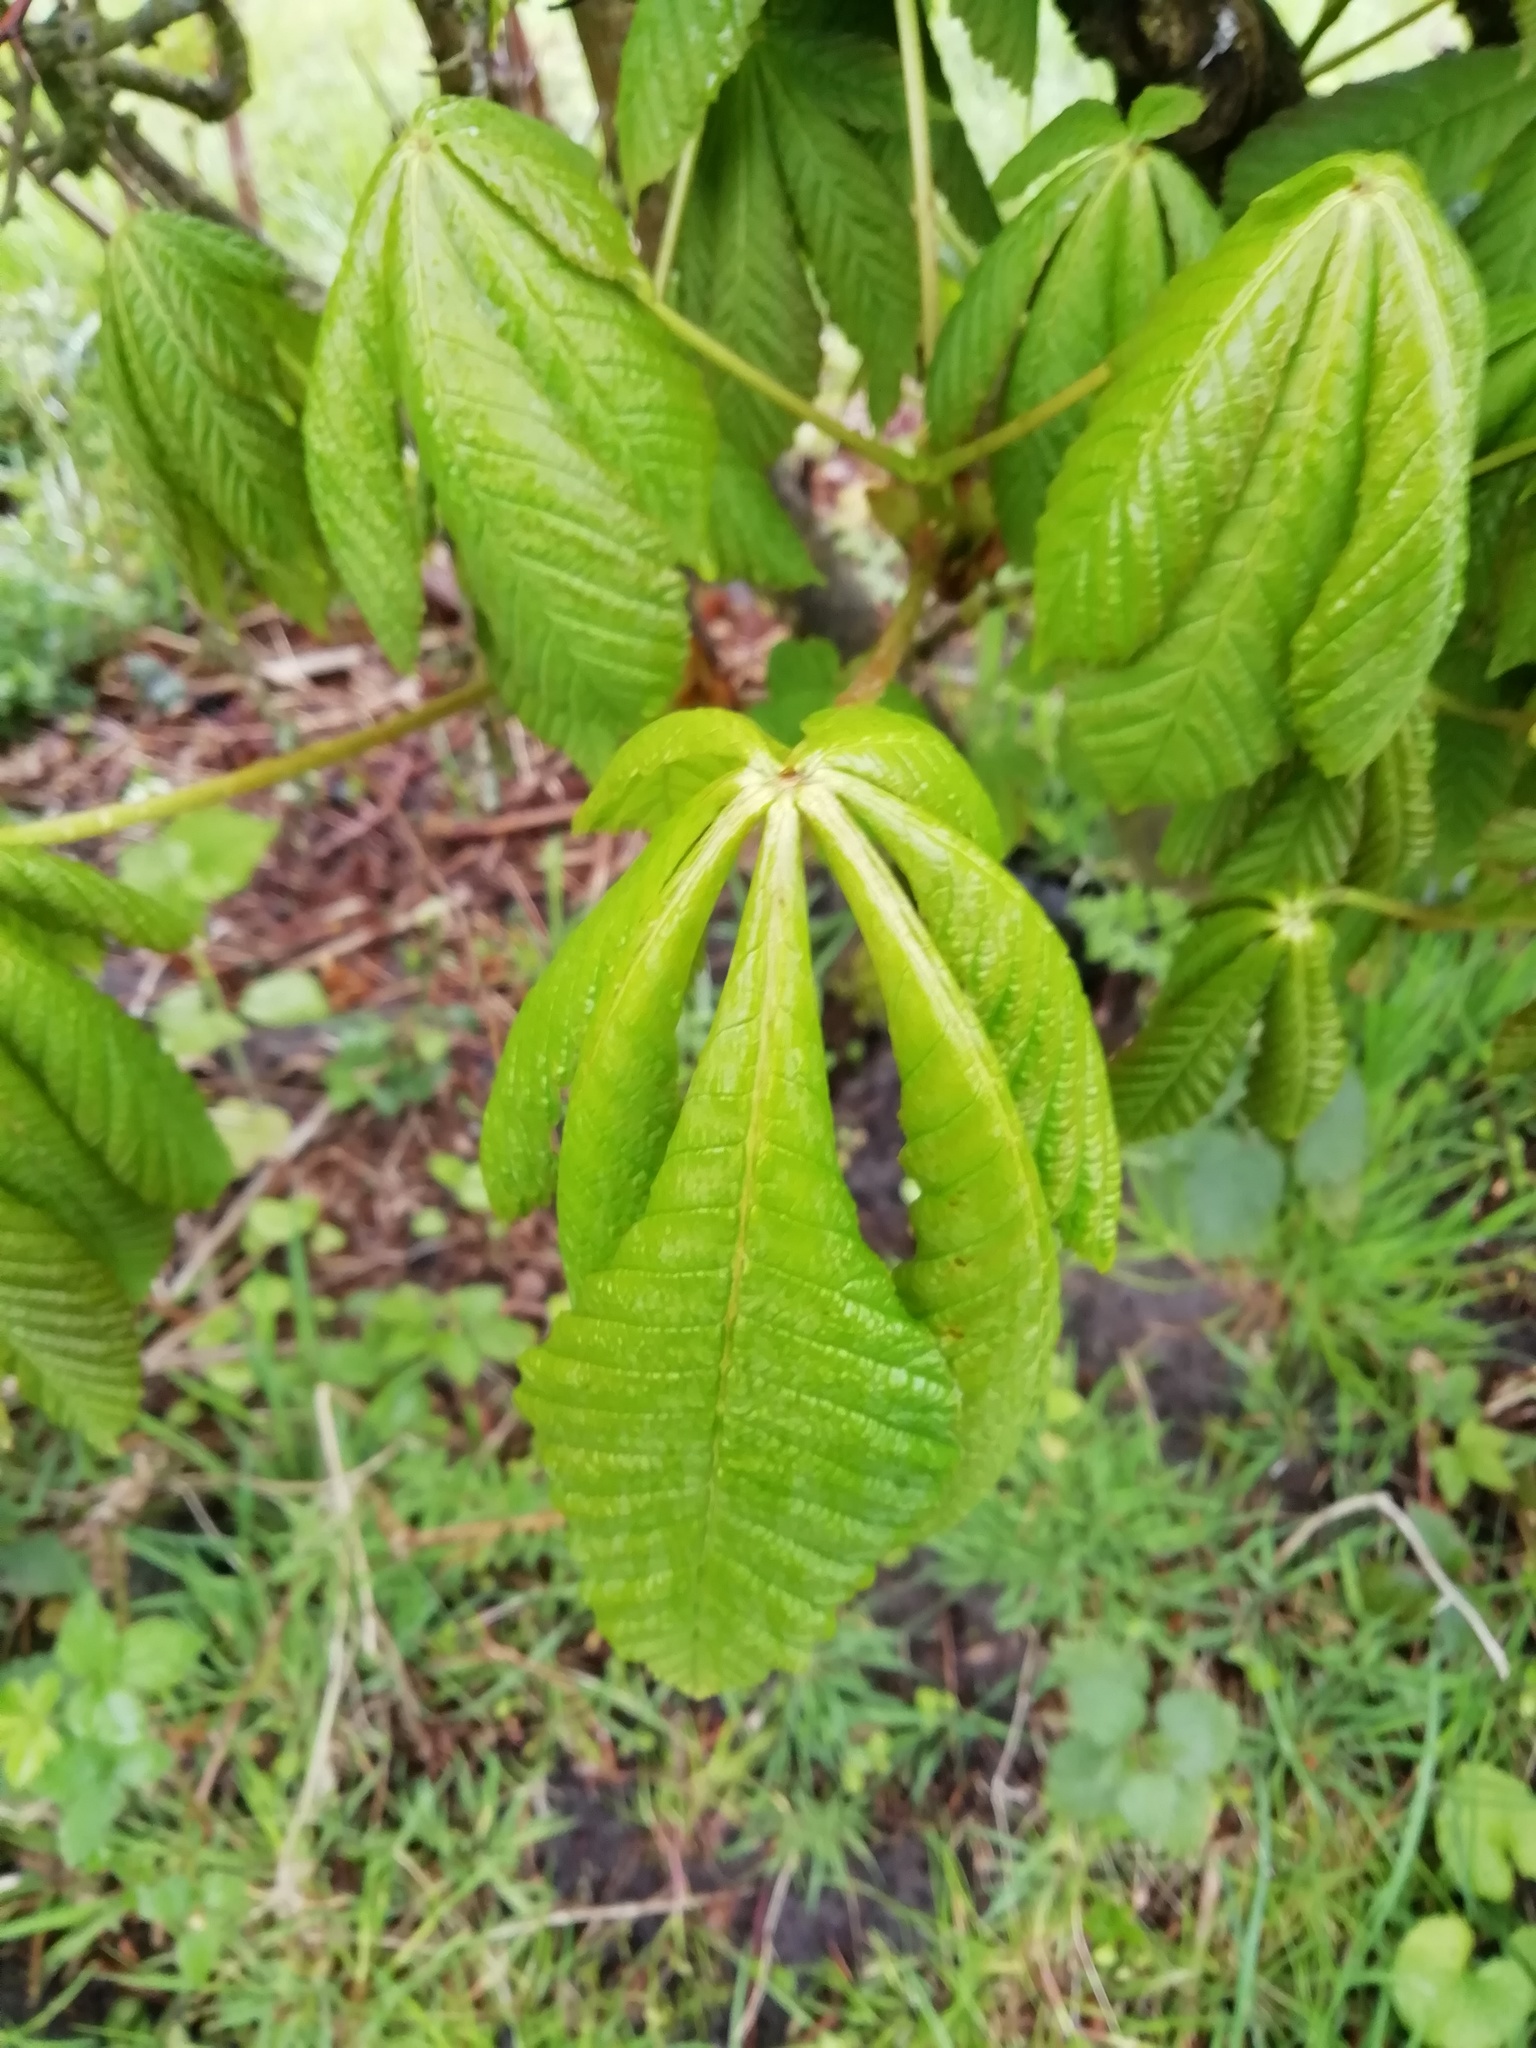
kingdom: Plantae
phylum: Tracheophyta
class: Magnoliopsida
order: Sapindales
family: Sapindaceae
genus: Aesculus
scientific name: Aesculus hippocastanum
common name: Horse-chestnut
